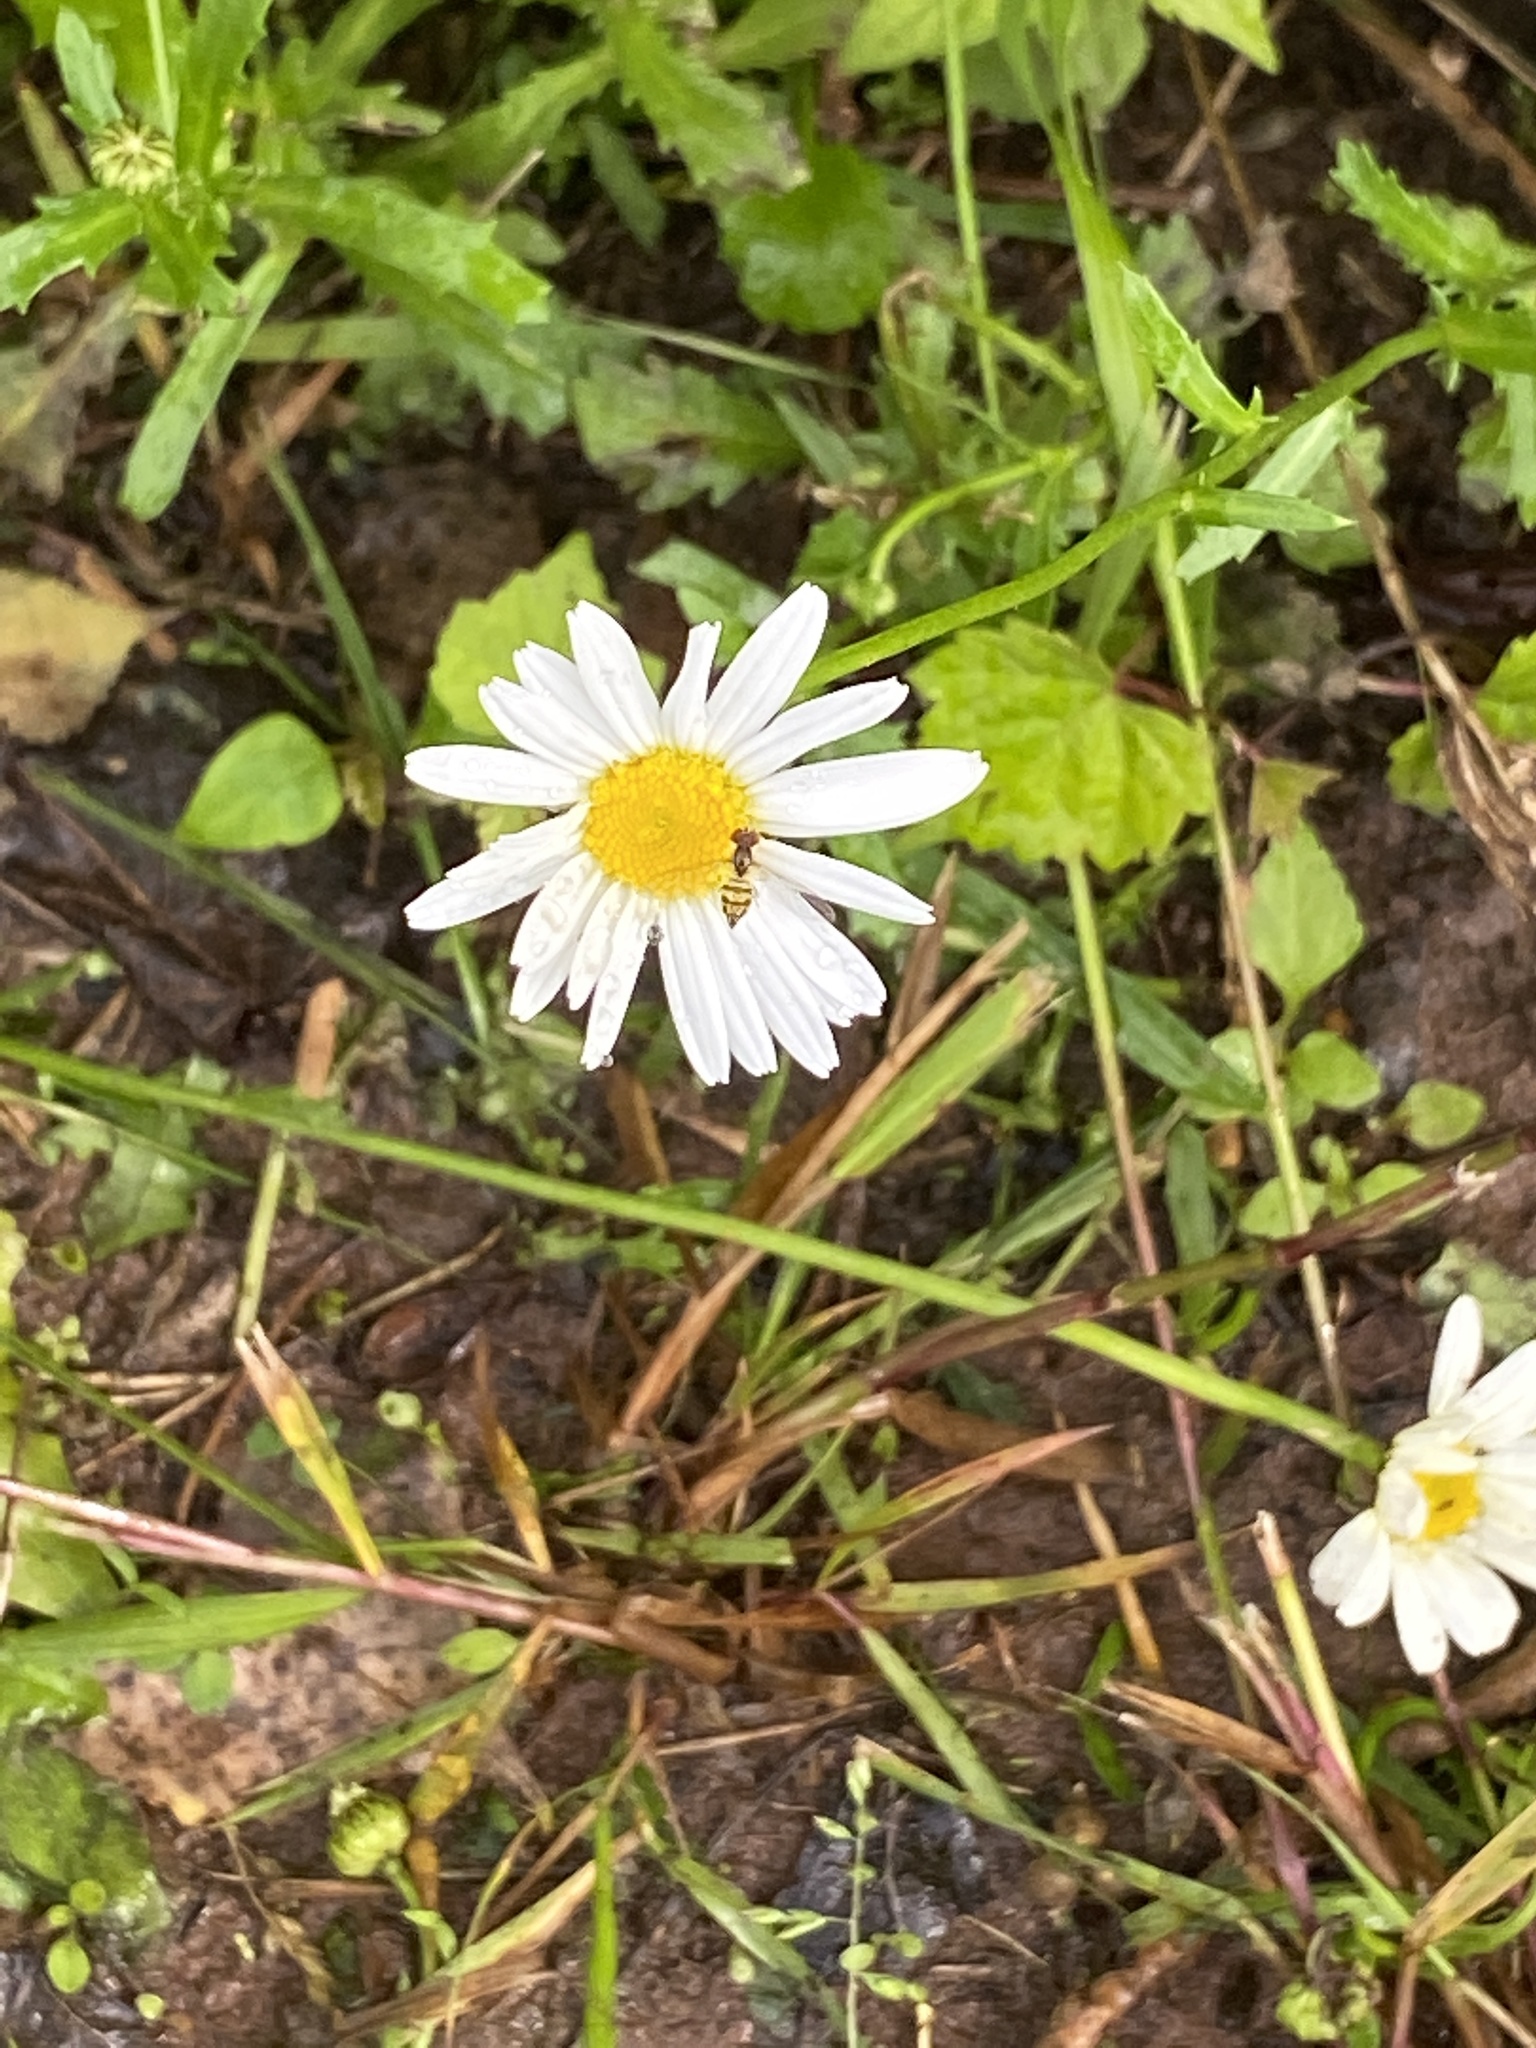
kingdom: Plantae
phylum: Tracheophyta
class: Magnoliopsida
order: Asterales
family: Asteraceae
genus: Leucanthemum
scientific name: Leucanthemum vulgare
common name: Oxeye daisy
